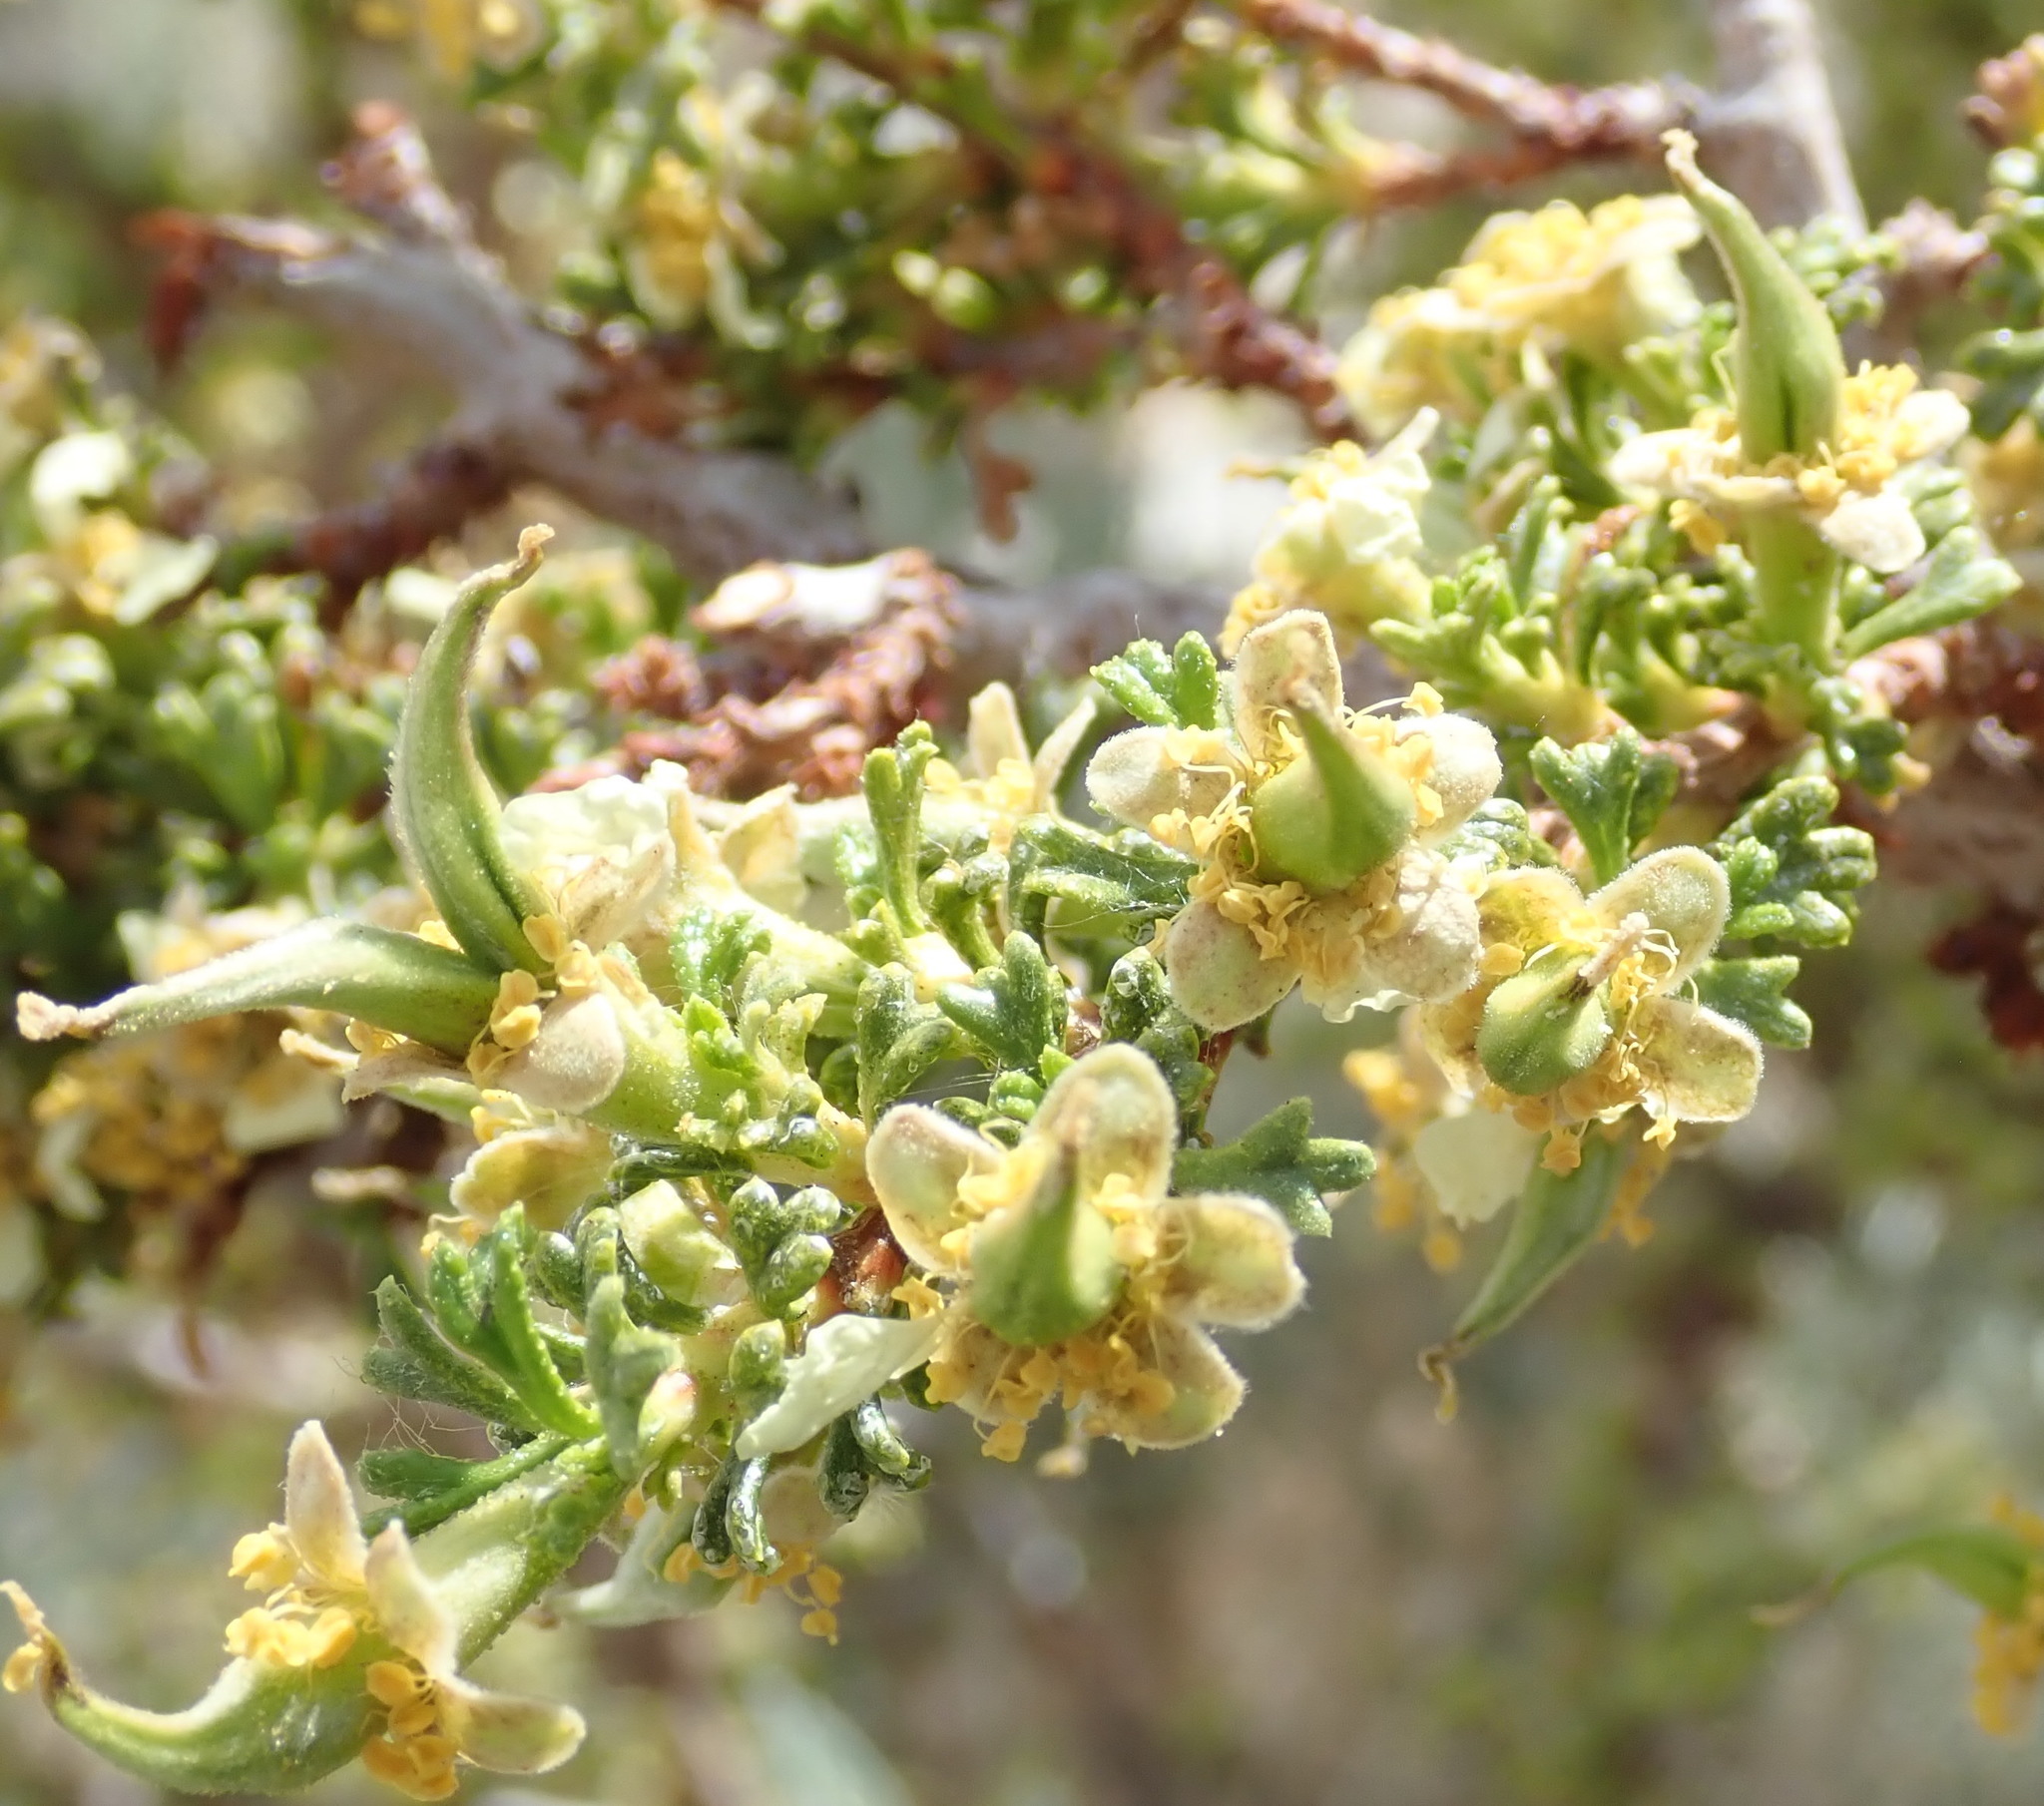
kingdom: Plantae
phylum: Tracheophyta
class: Magnoliopsida
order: Rosales
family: Rosaceae
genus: Purshia
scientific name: Purshia glandulosa
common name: Desert bitterbrush
